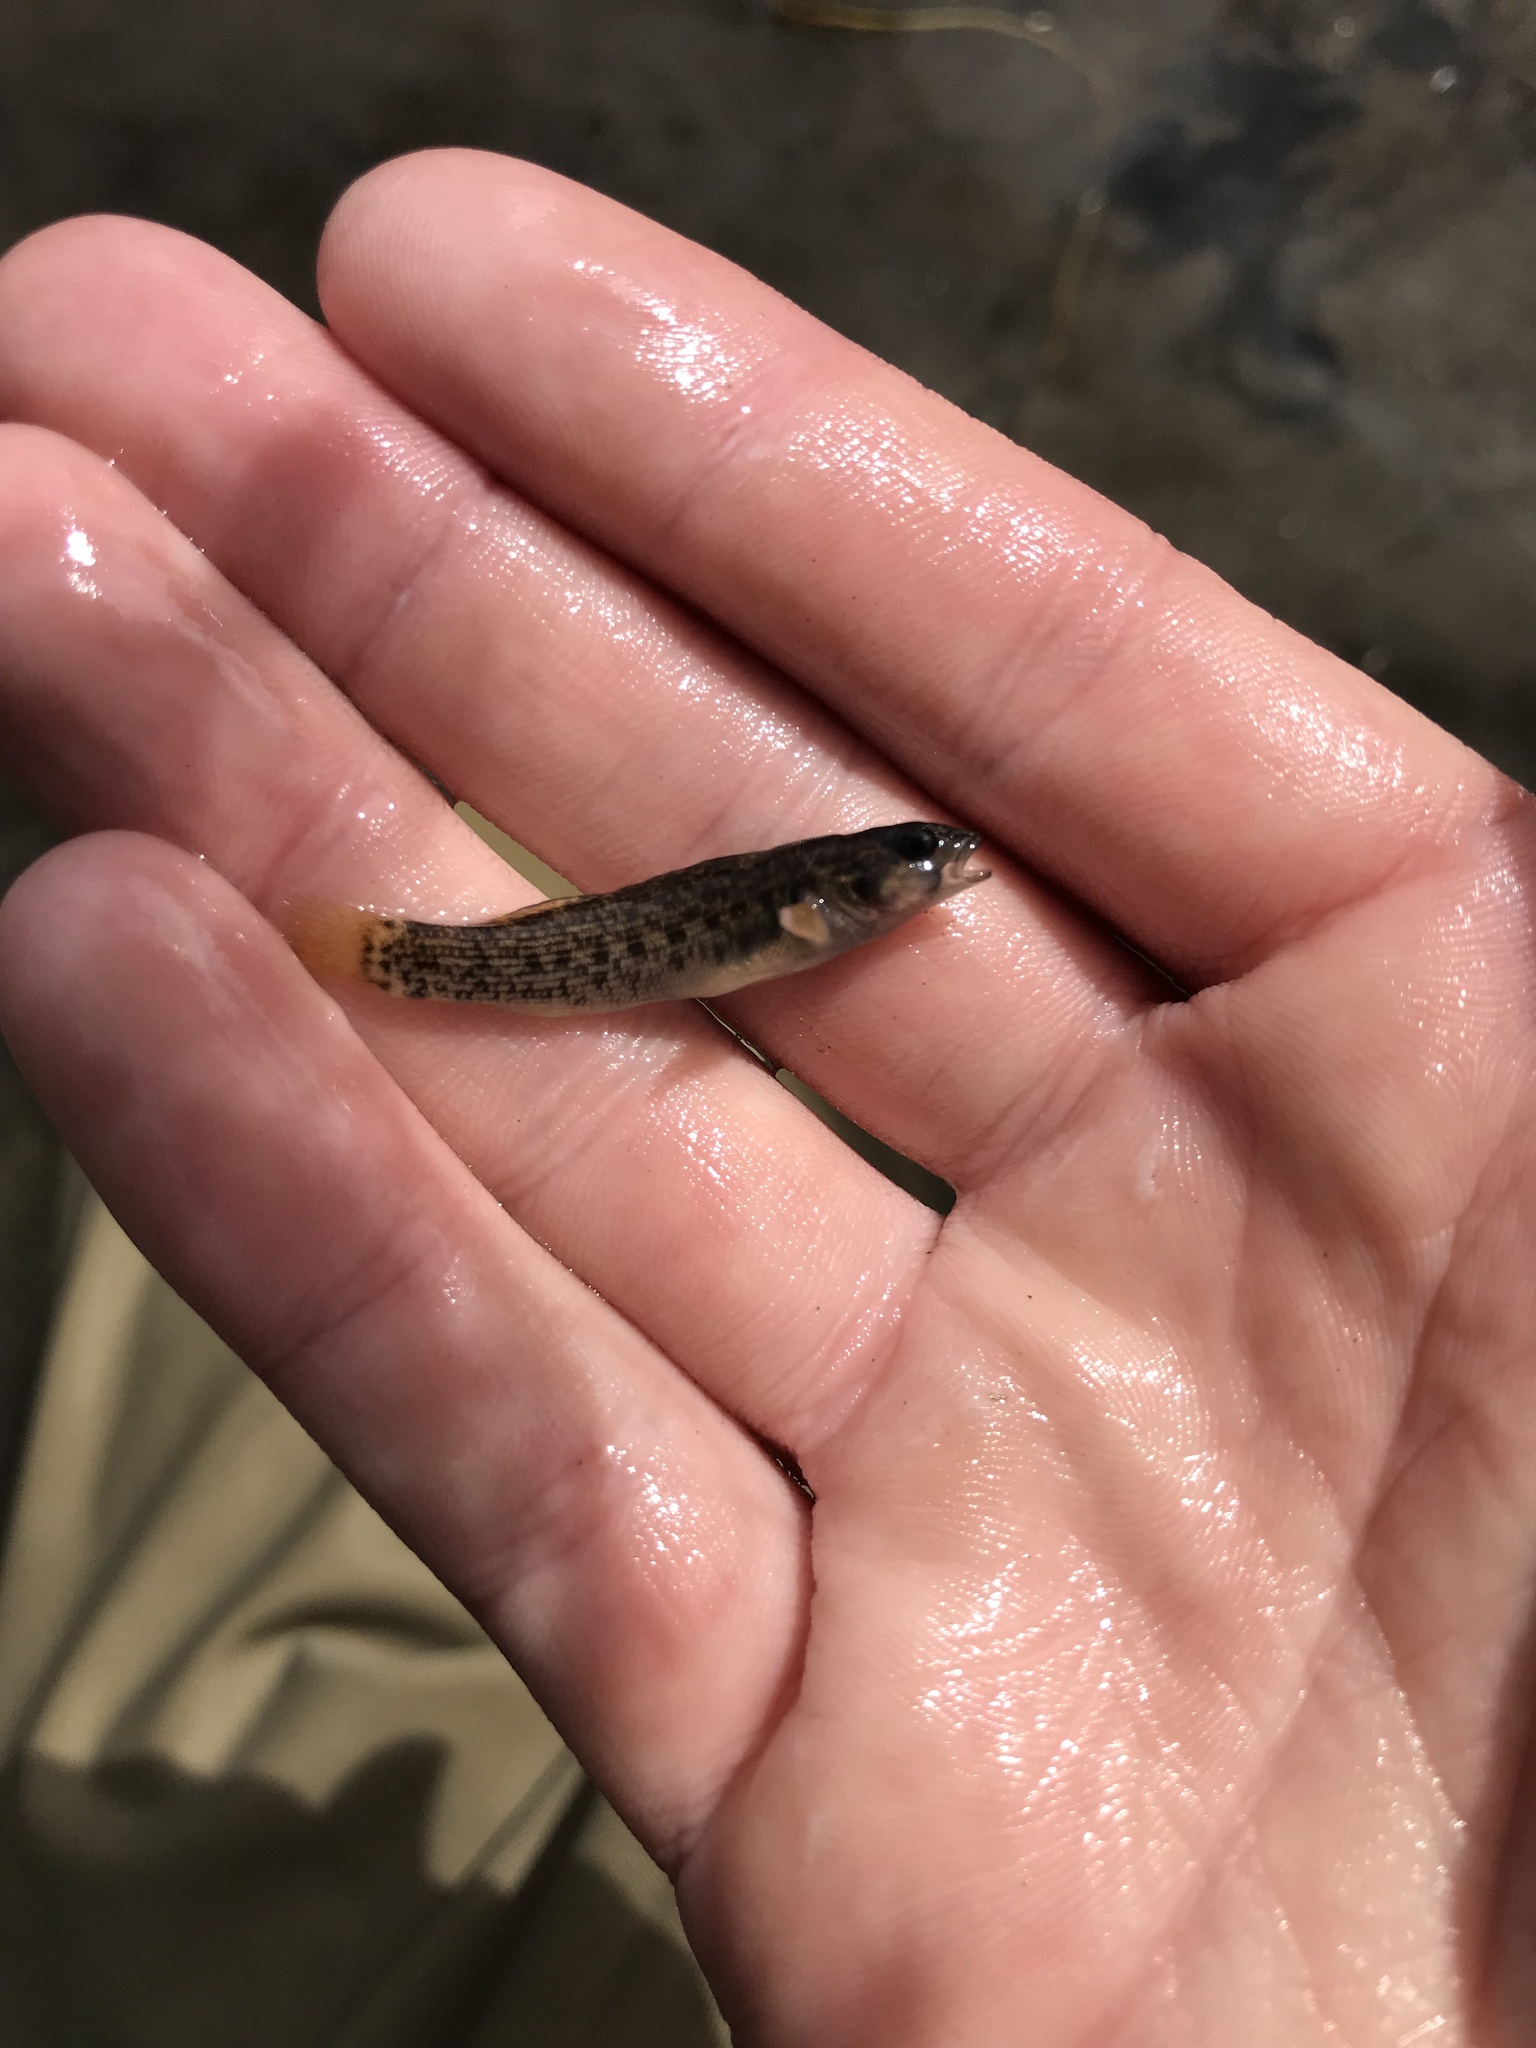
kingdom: Animalia
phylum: Chordata
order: Perciformes
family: Percidae
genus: Etheostoma
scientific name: Etheostoma chlorobranchium
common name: Greenfin darter
